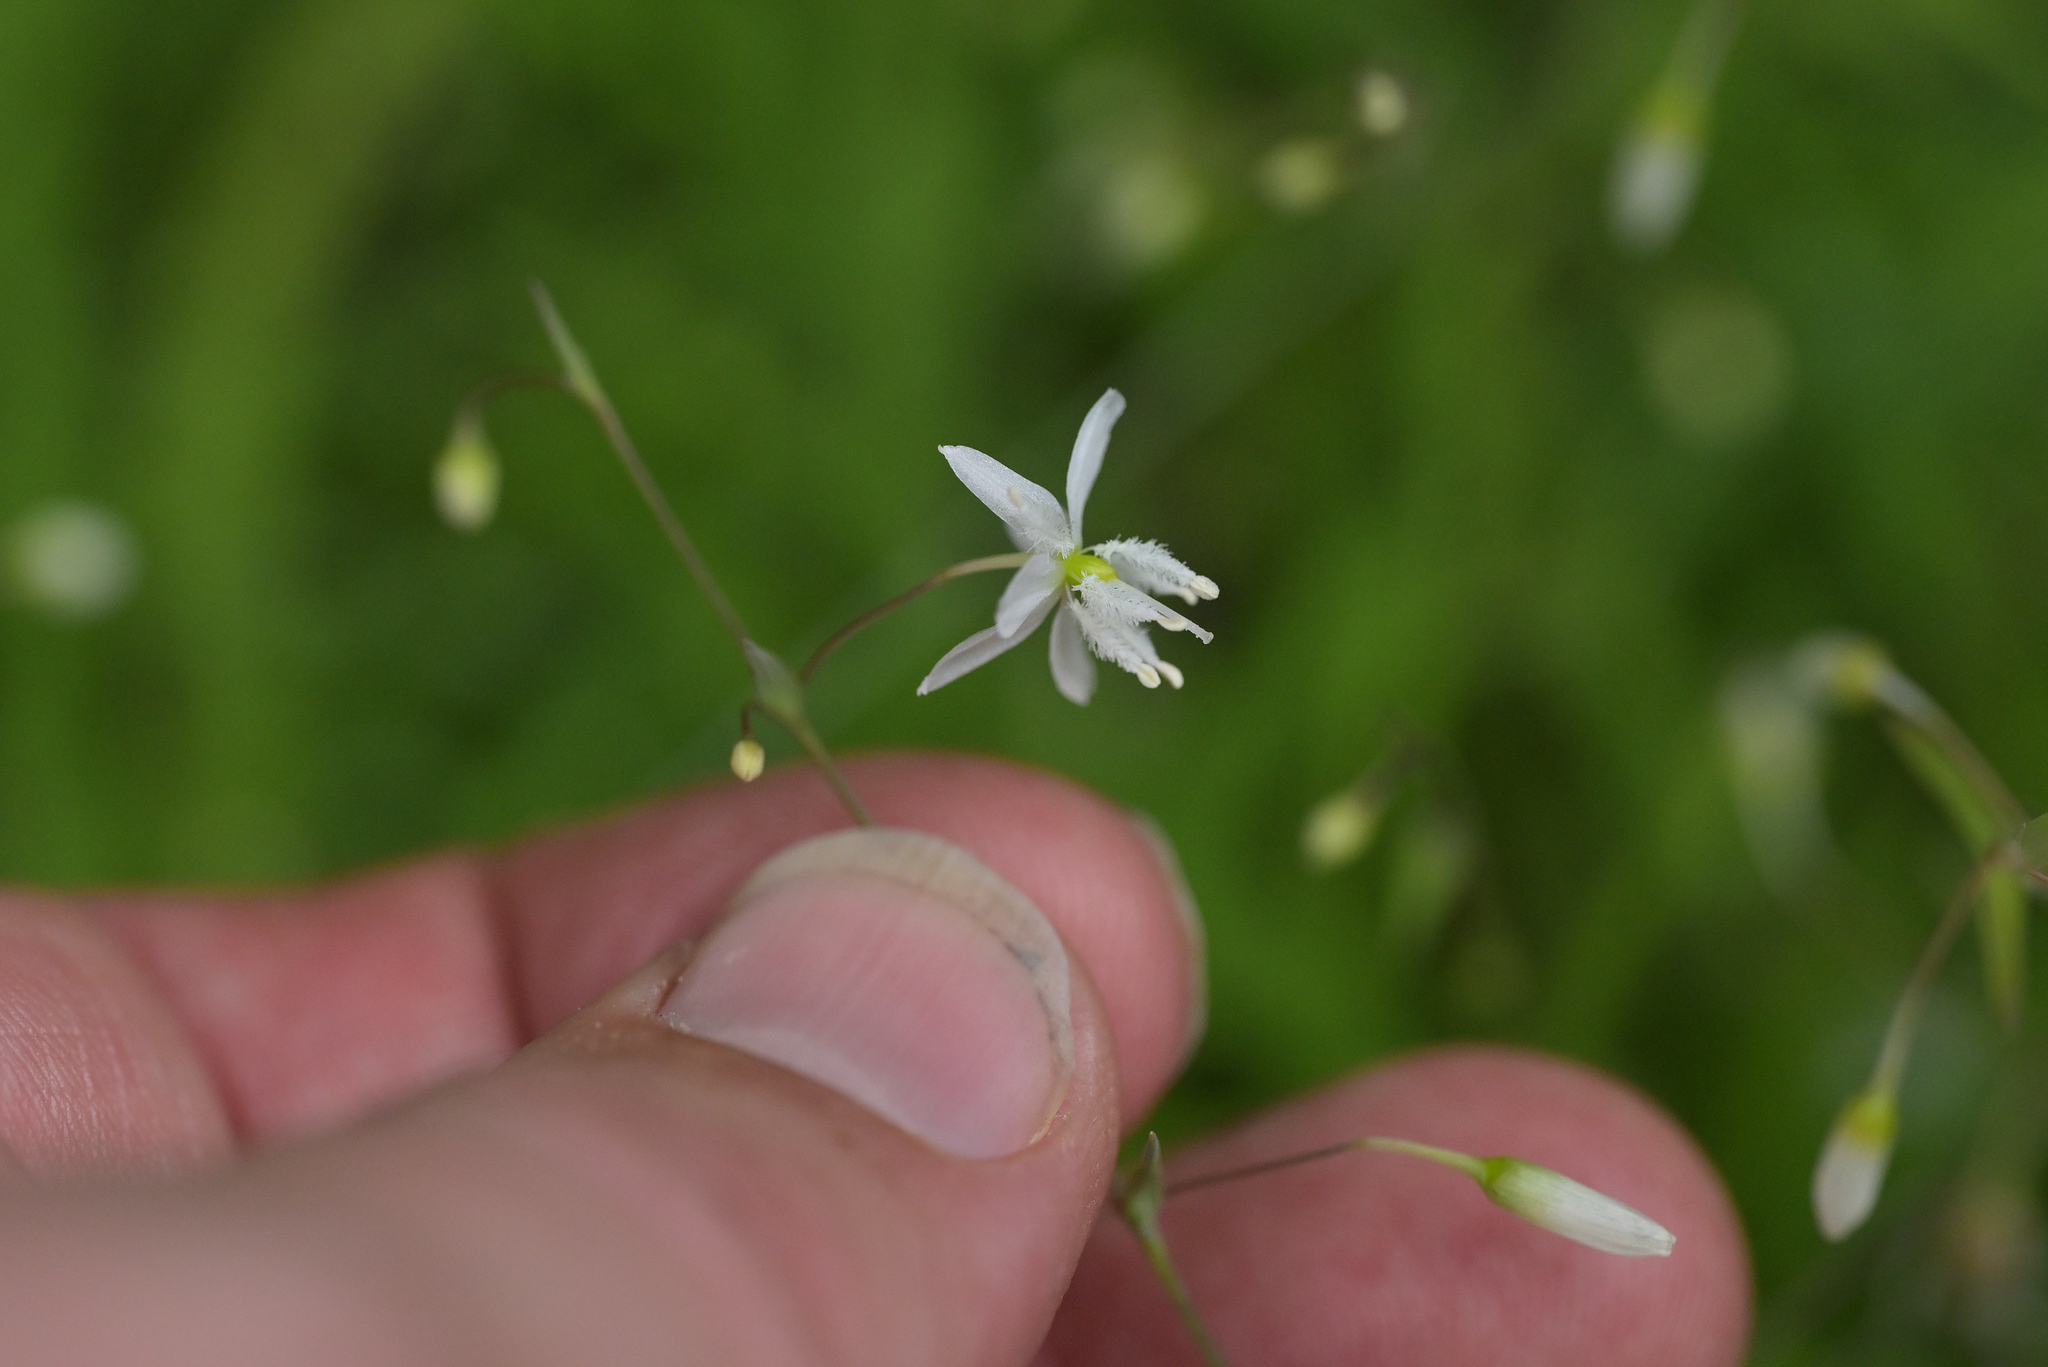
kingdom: Plantae
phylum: Tracheophyta
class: Liliopsida
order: Asparagales
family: Asparagaceae
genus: Arthropodium
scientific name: Arthropodium candidum
